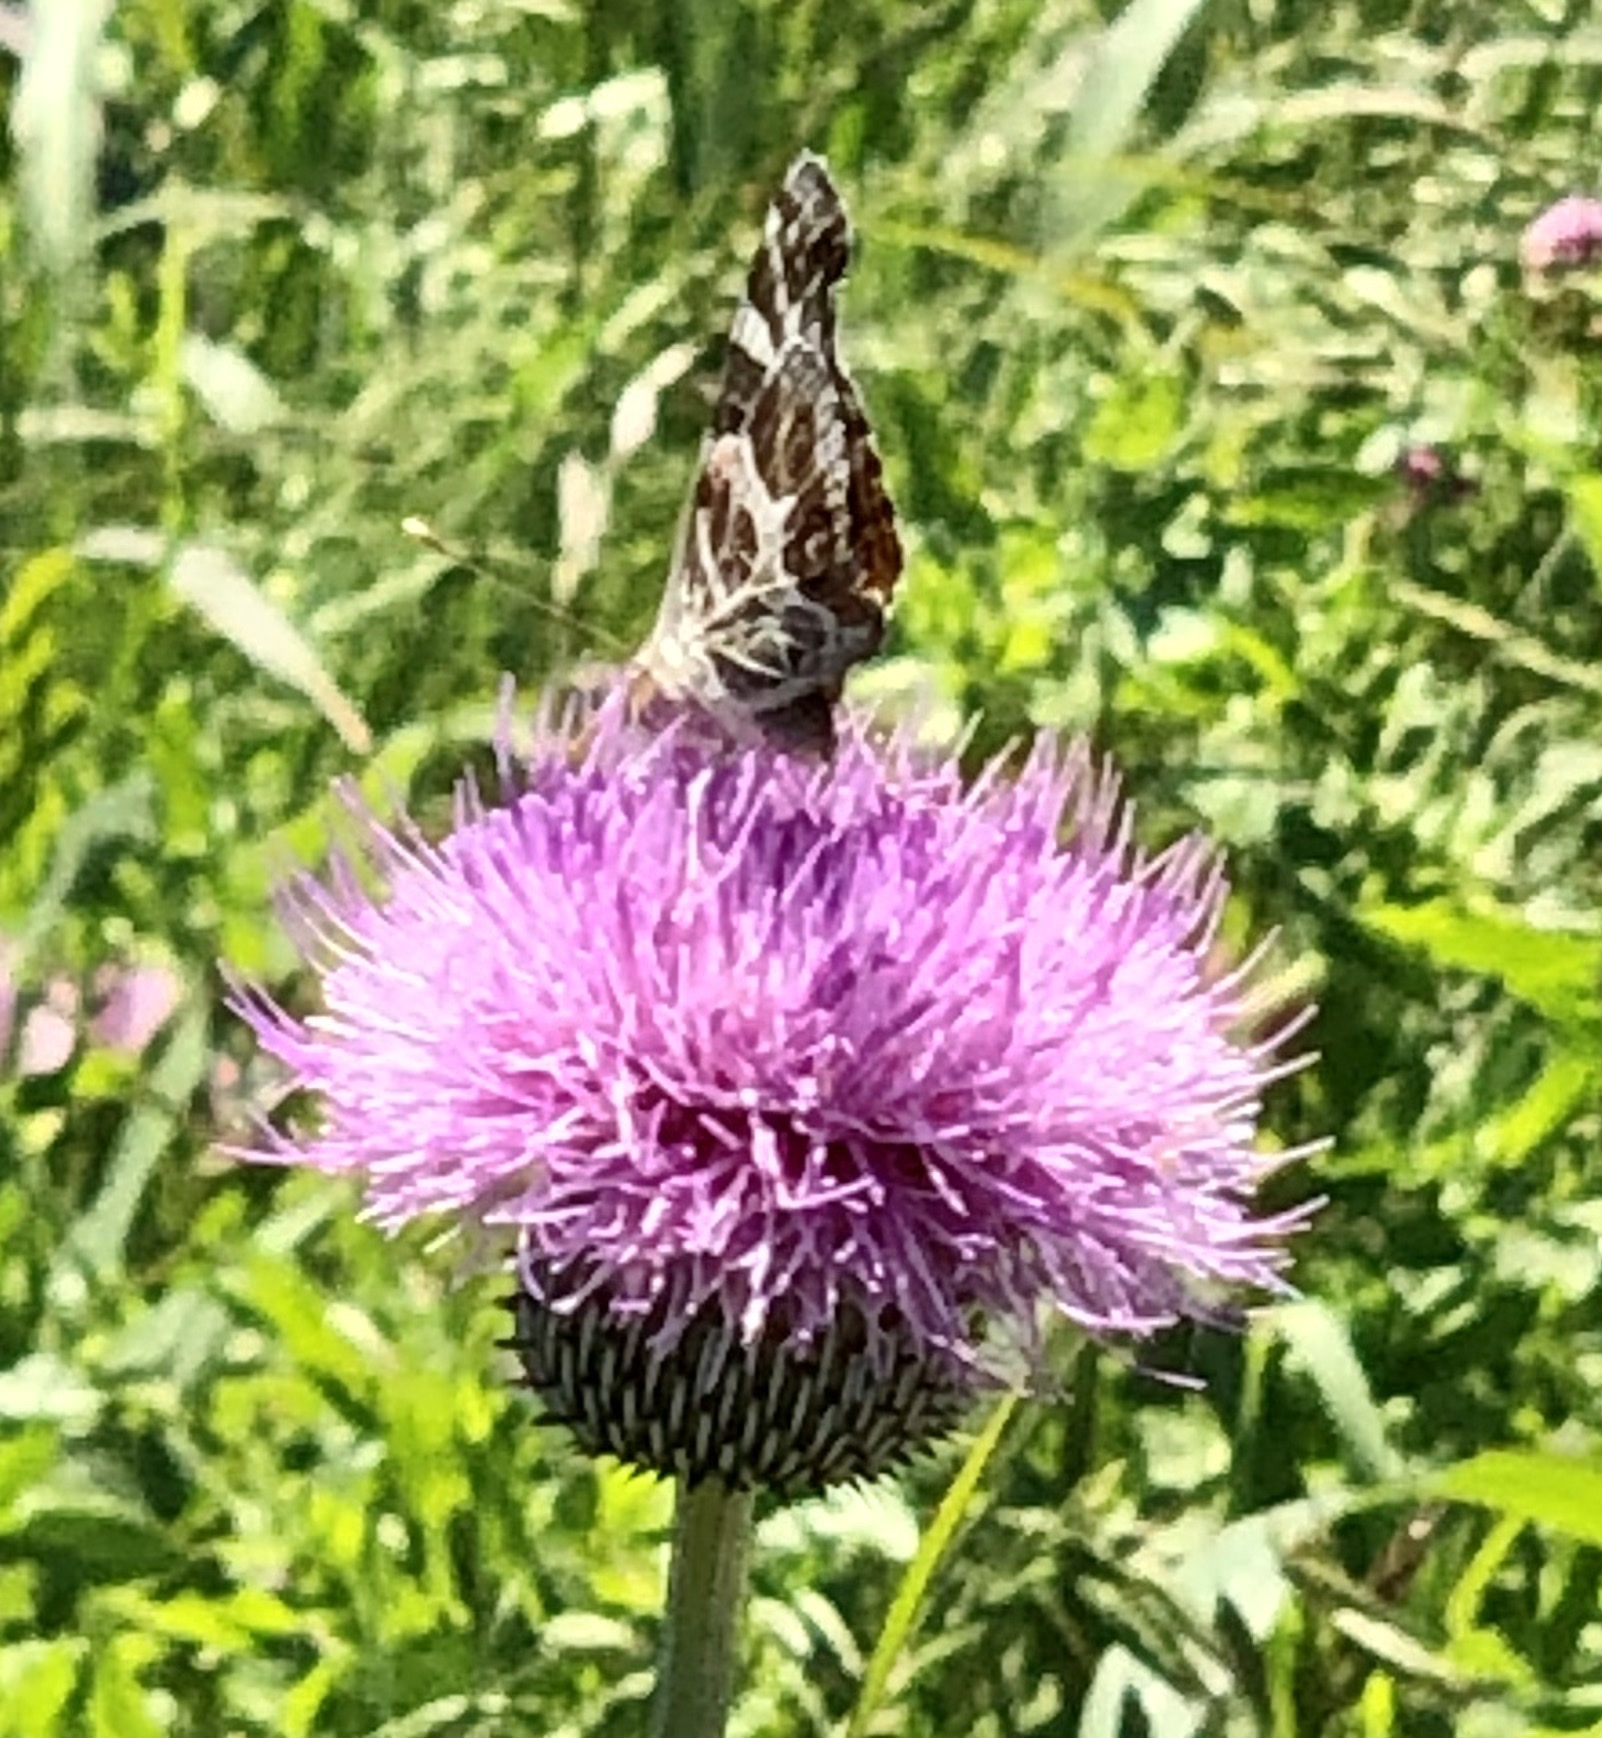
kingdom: Animalia
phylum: Arthropoda
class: Insecta
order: Lepidoptera
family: Nymphalidae
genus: Vanessa
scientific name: Vanessa virginiensis
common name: American lady
